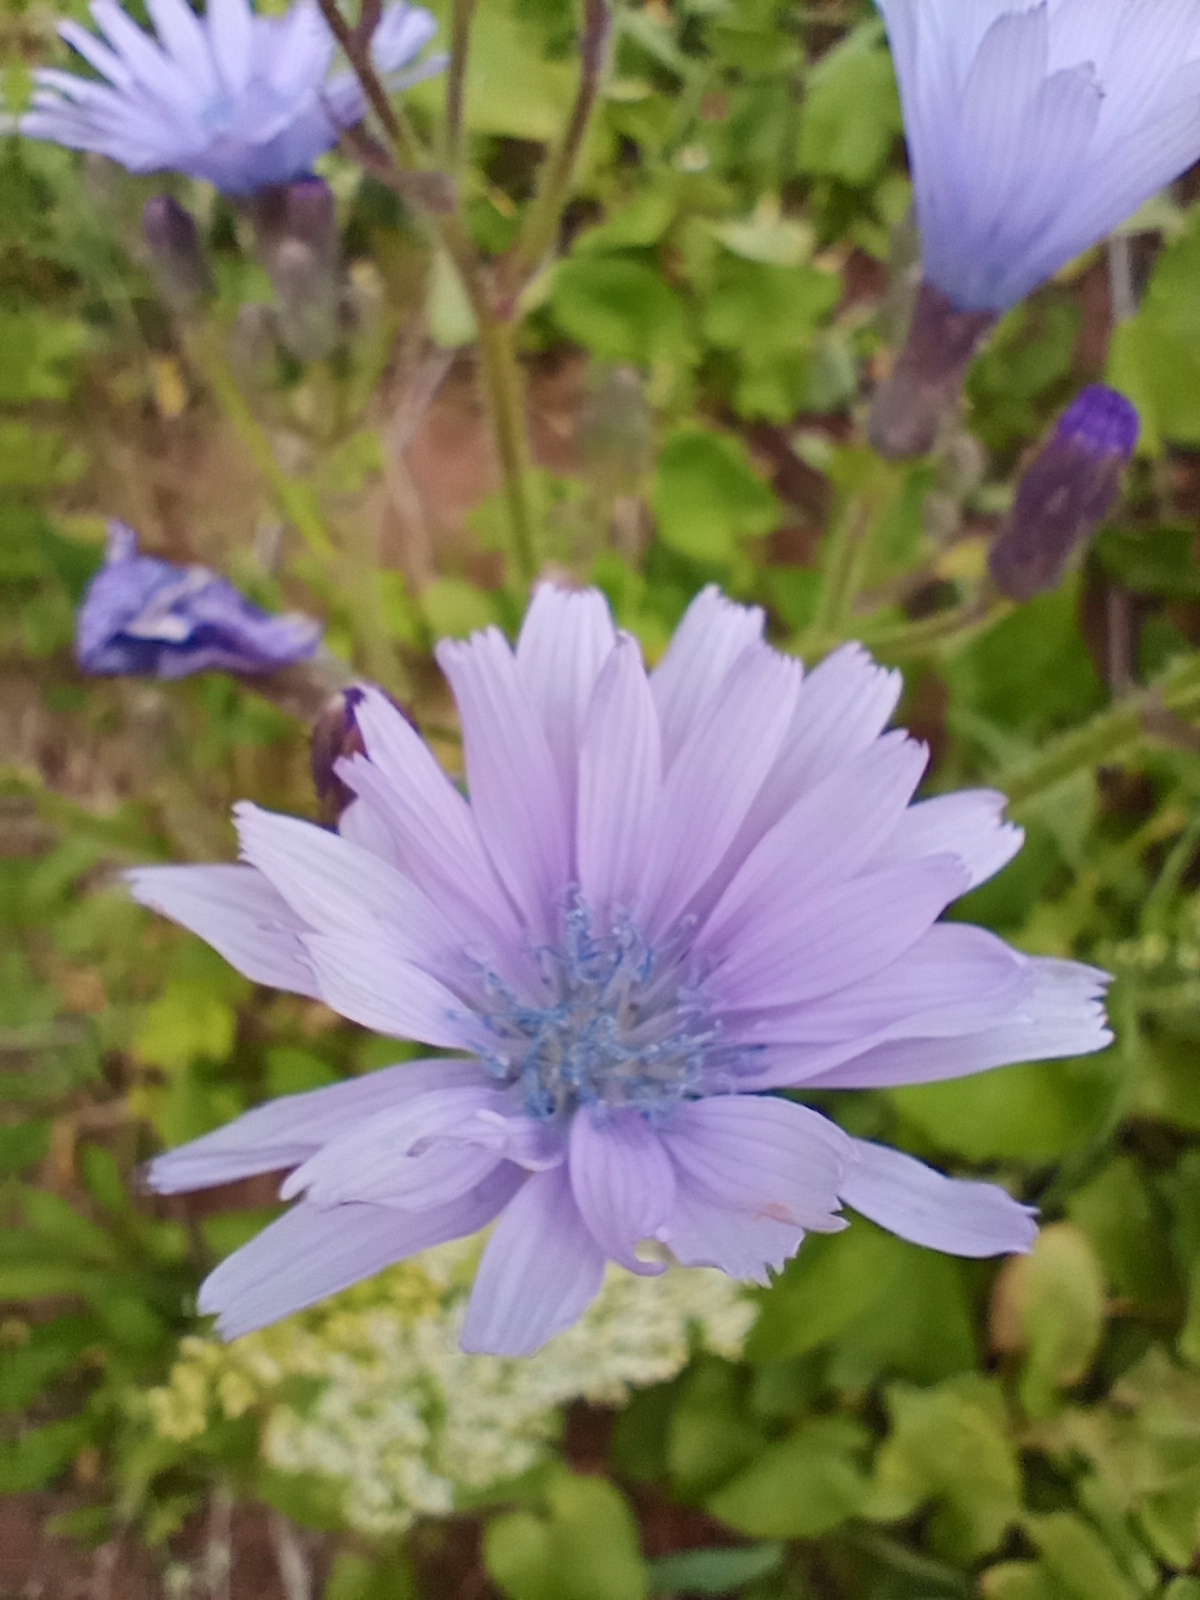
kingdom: Plantae
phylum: Tracheophyta
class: Magnoliopsida
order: Asterales
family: Asteraceae
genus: Lactuca
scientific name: Lactuca macrophylla
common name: Common blue-sow-thistle
